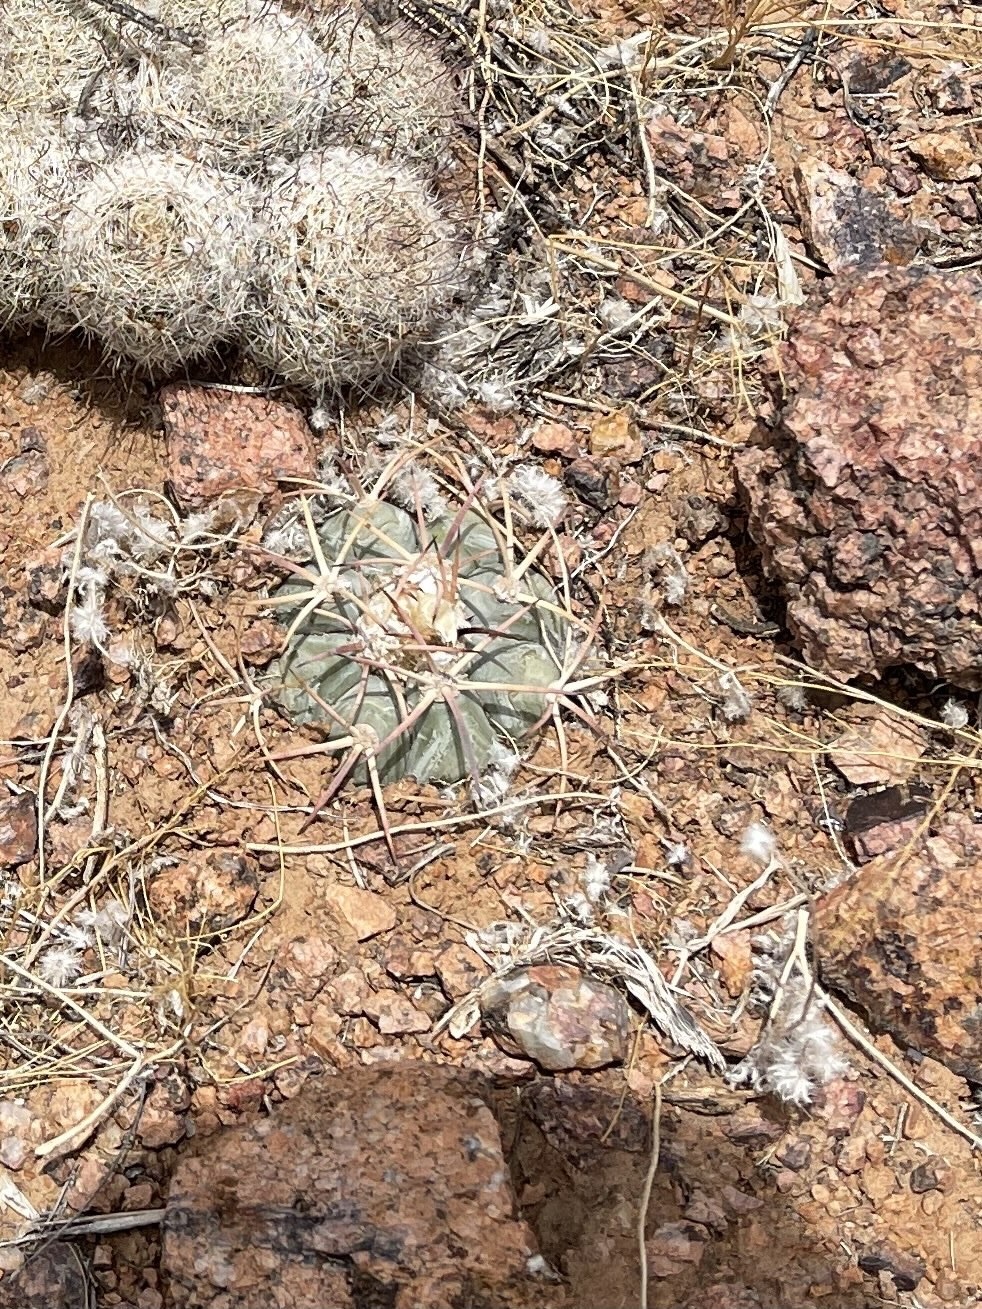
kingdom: Plantae
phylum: Tracheophyta
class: Magnoliopsida
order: Caryophyllales
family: Cactaceae
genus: Echinocactus
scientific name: Echinocactus horizonthalonius
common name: Devilshead
